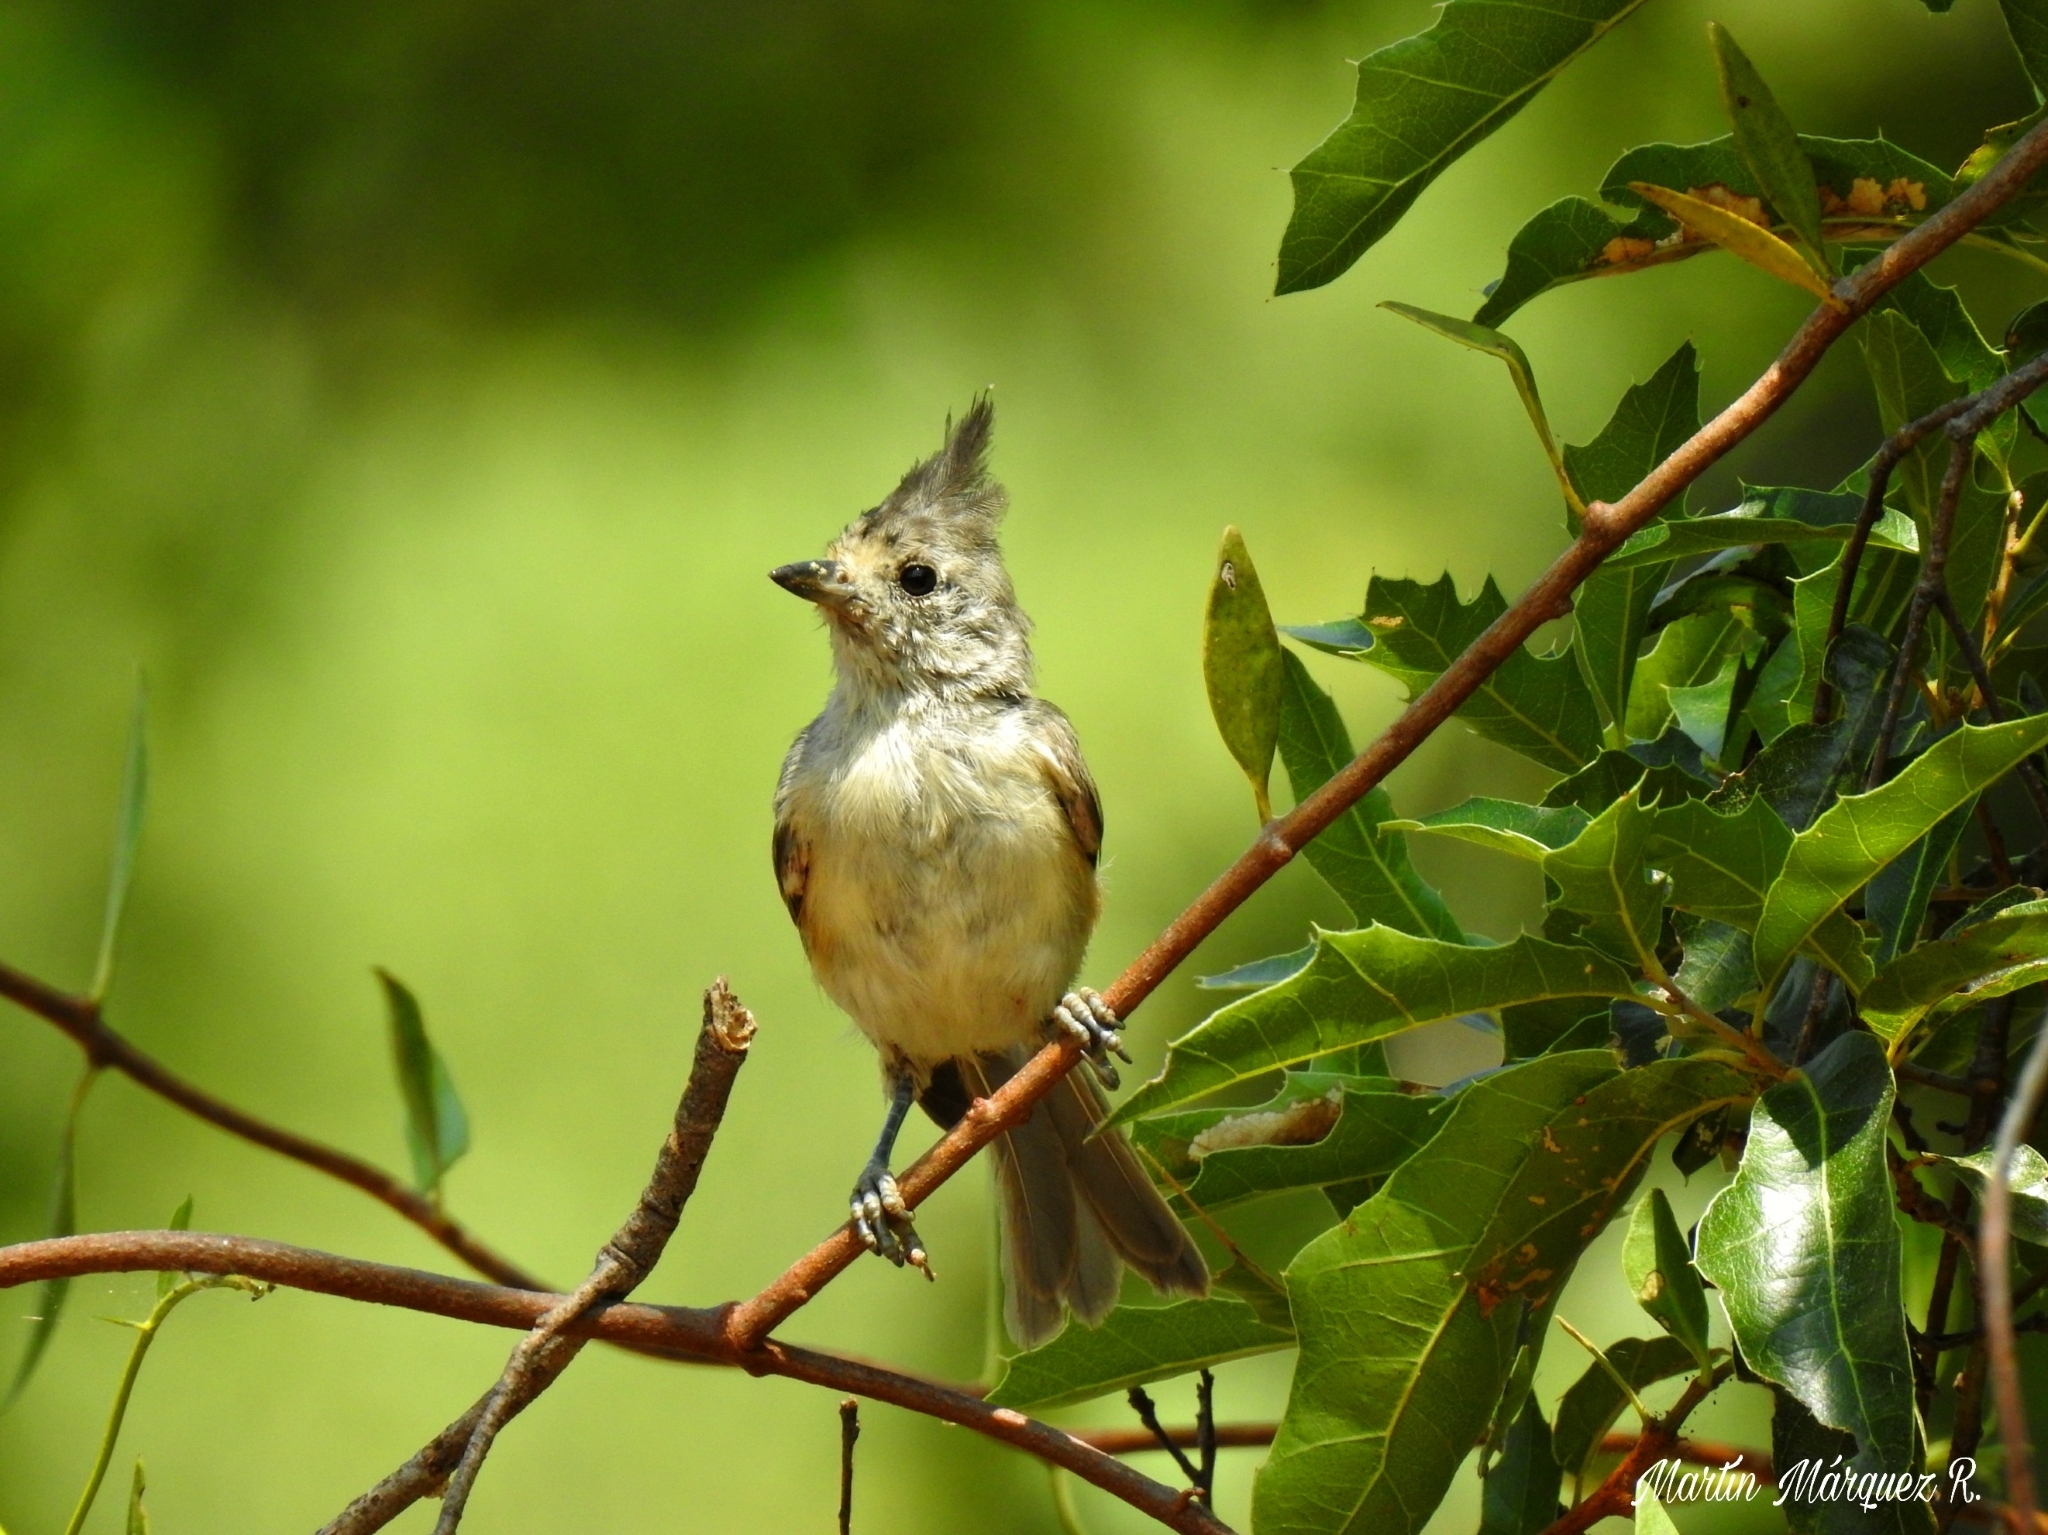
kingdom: Animalia
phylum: Chordata
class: Aves
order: Passeriformes
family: Paridae
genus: Baeolophus
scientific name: Baeolophus atricristatus
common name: Black-crested titmouse
